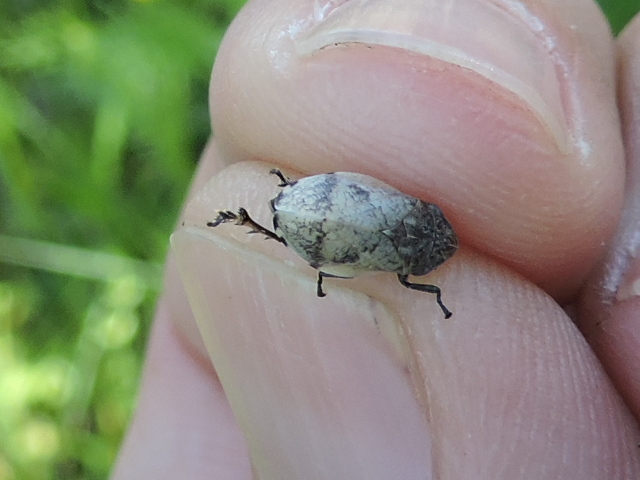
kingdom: Animalia
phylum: Arthropoda
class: Insecta
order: Hemiptera
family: Aphrophoridae
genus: Lepyronia
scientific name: Lepyronia gibbosa
